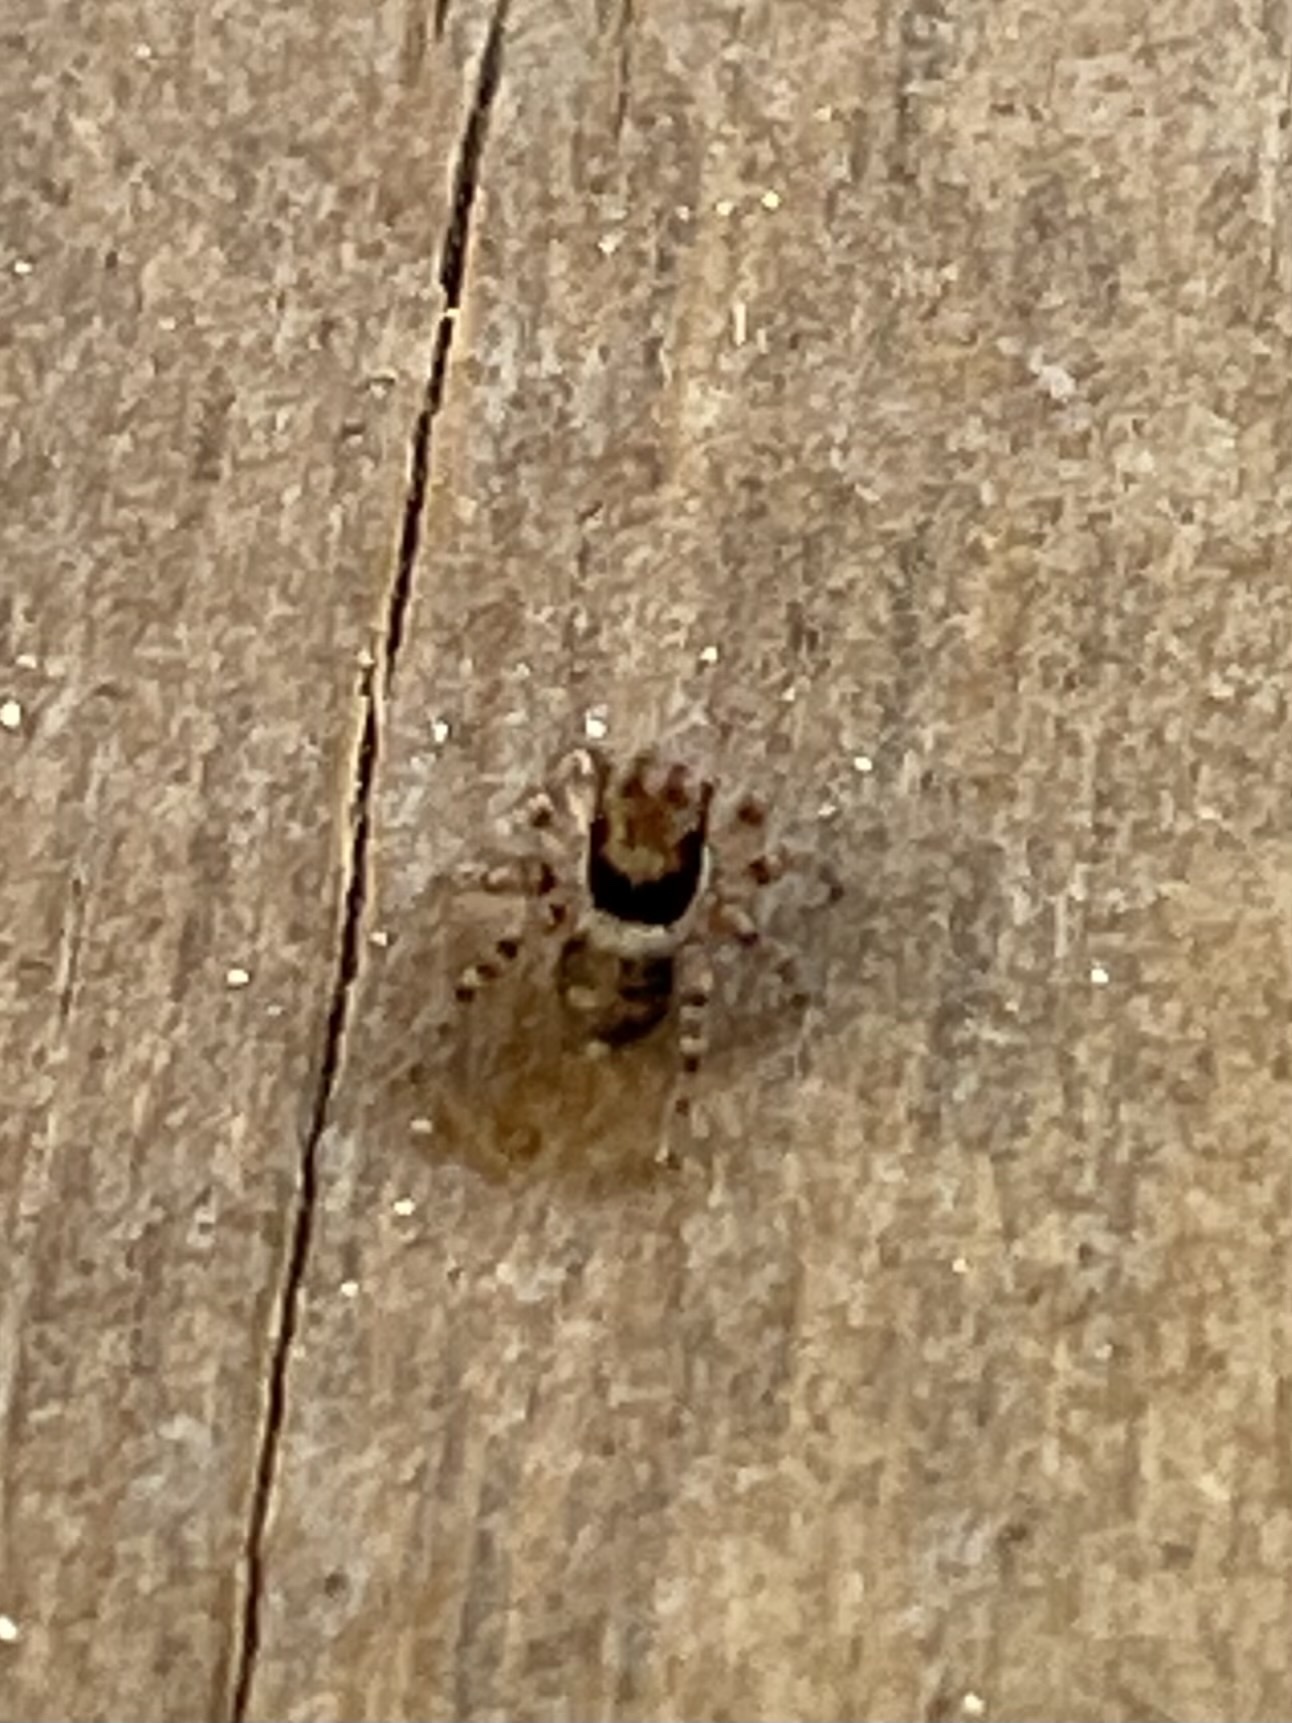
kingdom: Animalia
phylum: Arthropoda
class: Arachnida
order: Araneae
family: Salticidae
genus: Naphrys
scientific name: Naphrys acerba
